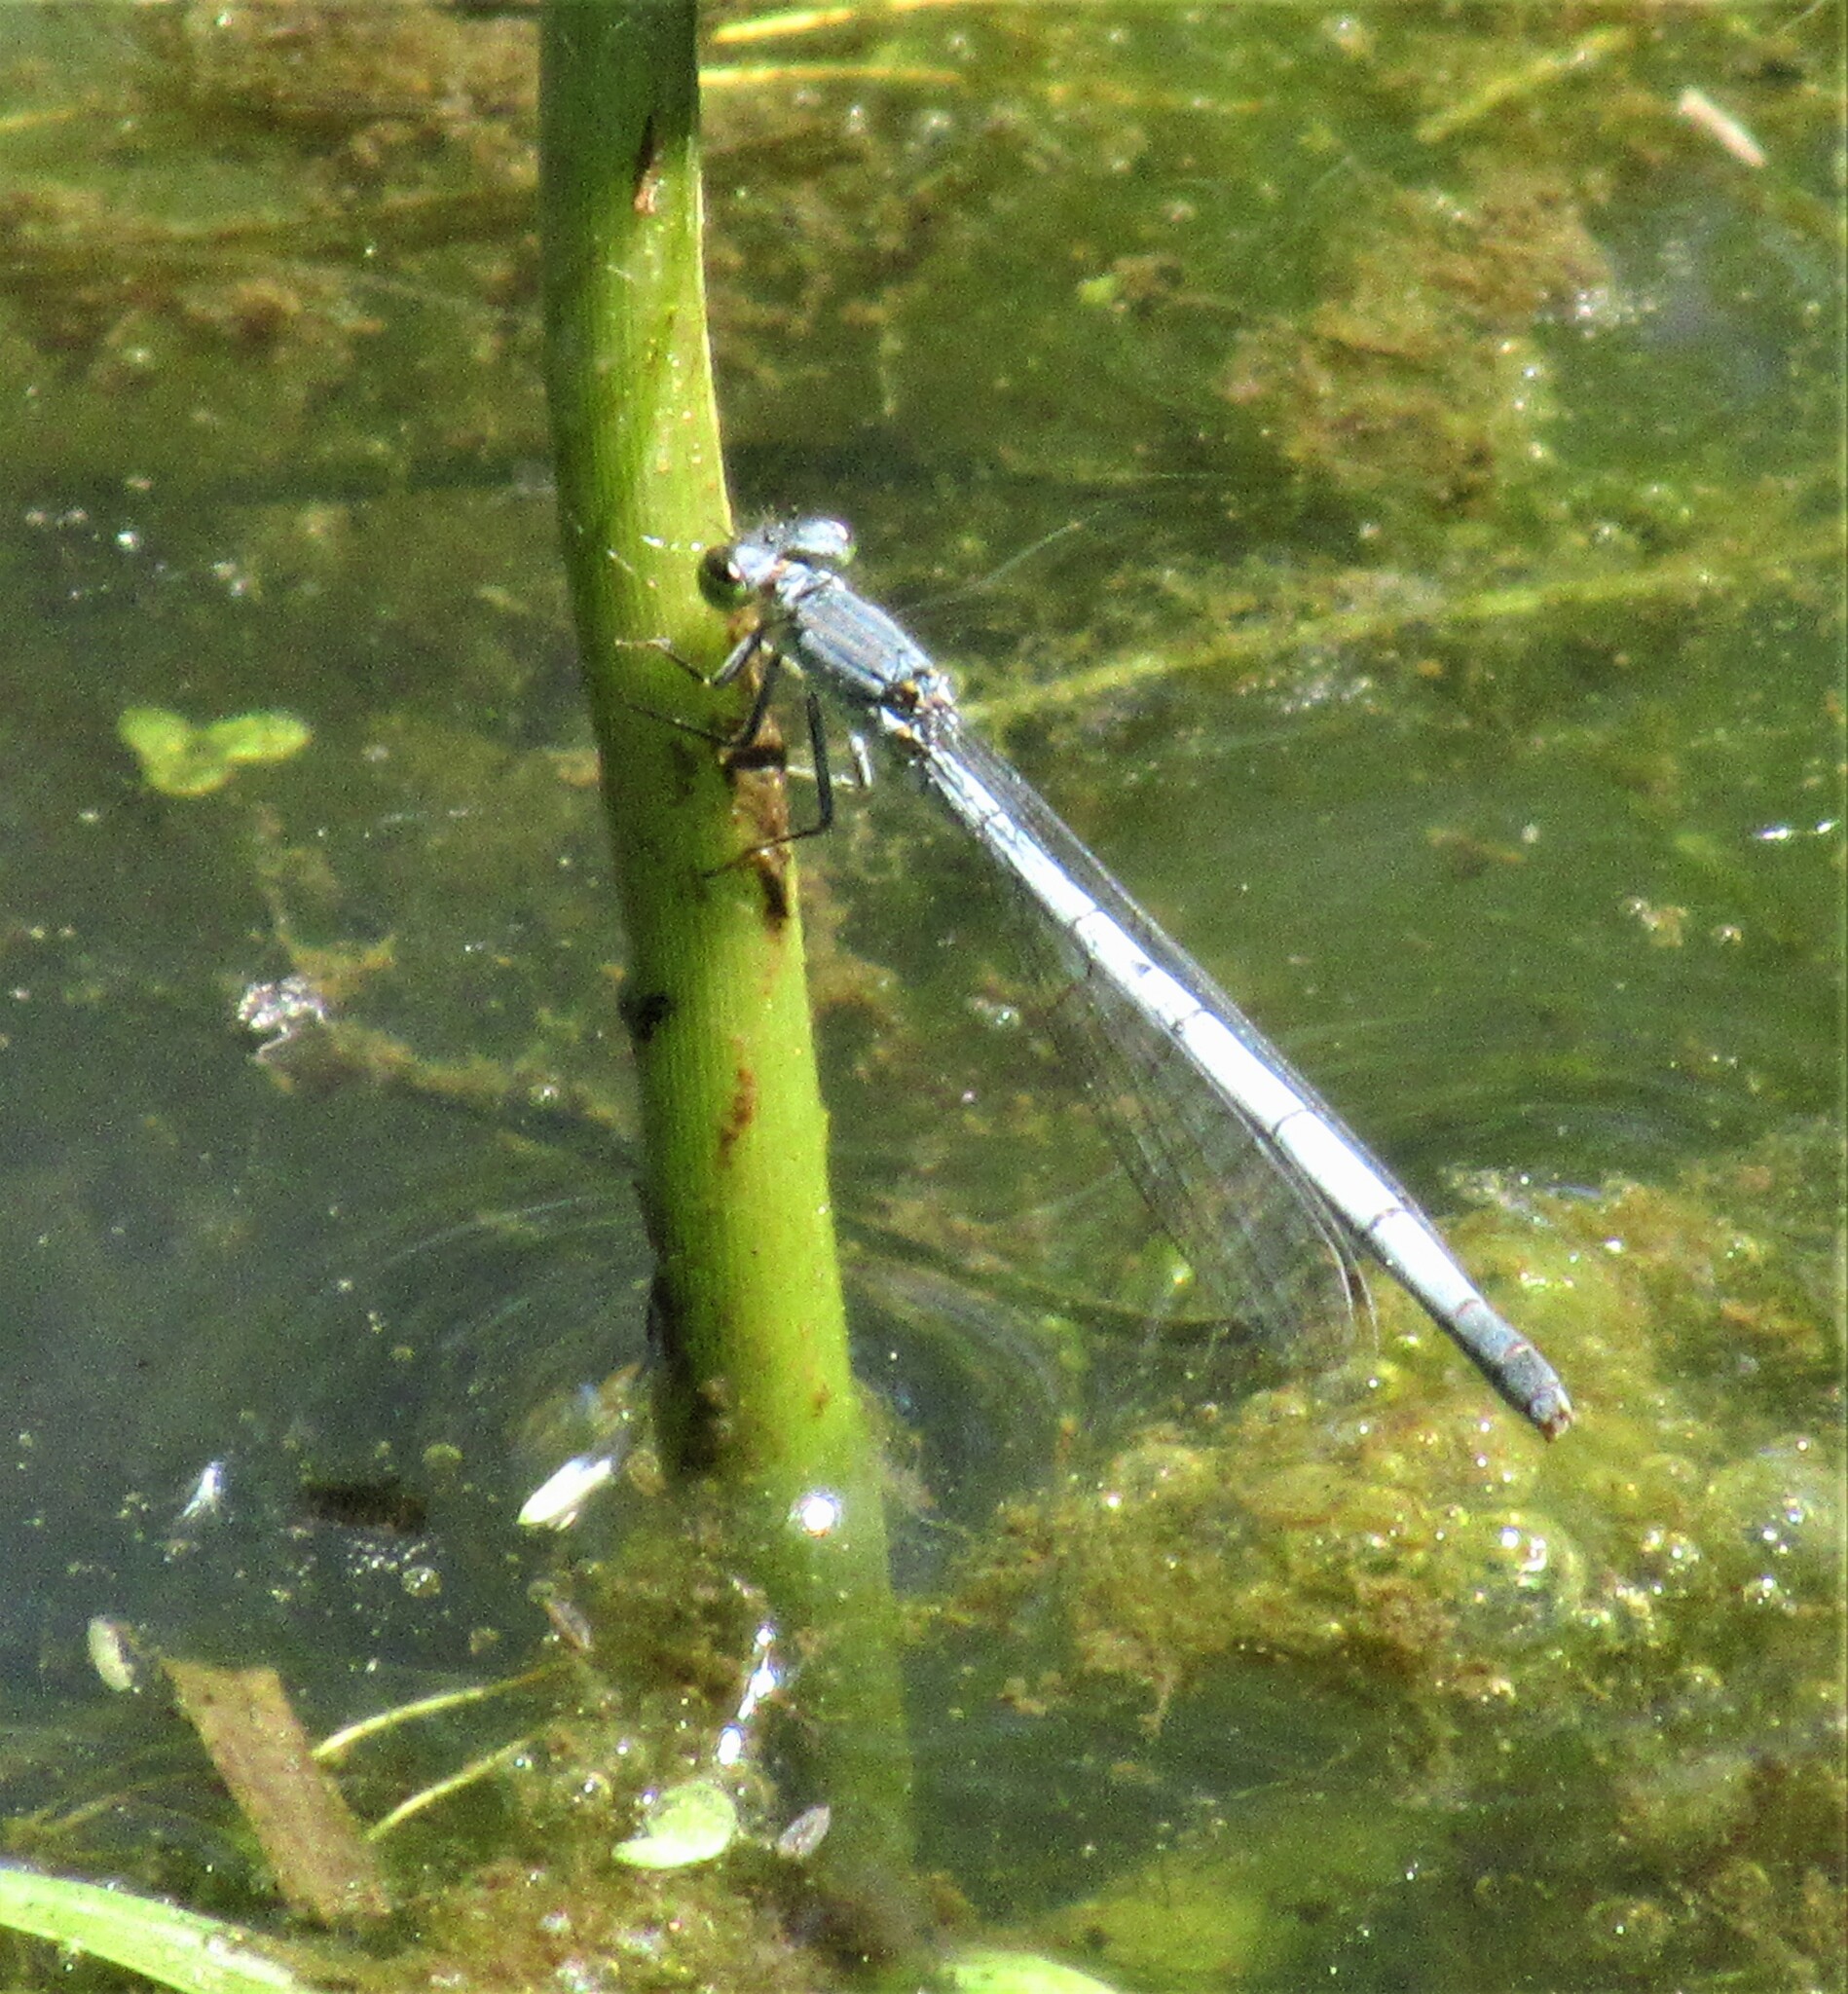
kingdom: Animalia
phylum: Arthropoda
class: Insecta
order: Odonata
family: Coenagrionidae
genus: Ischnura
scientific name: Ischnura perparva
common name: Western forktail
